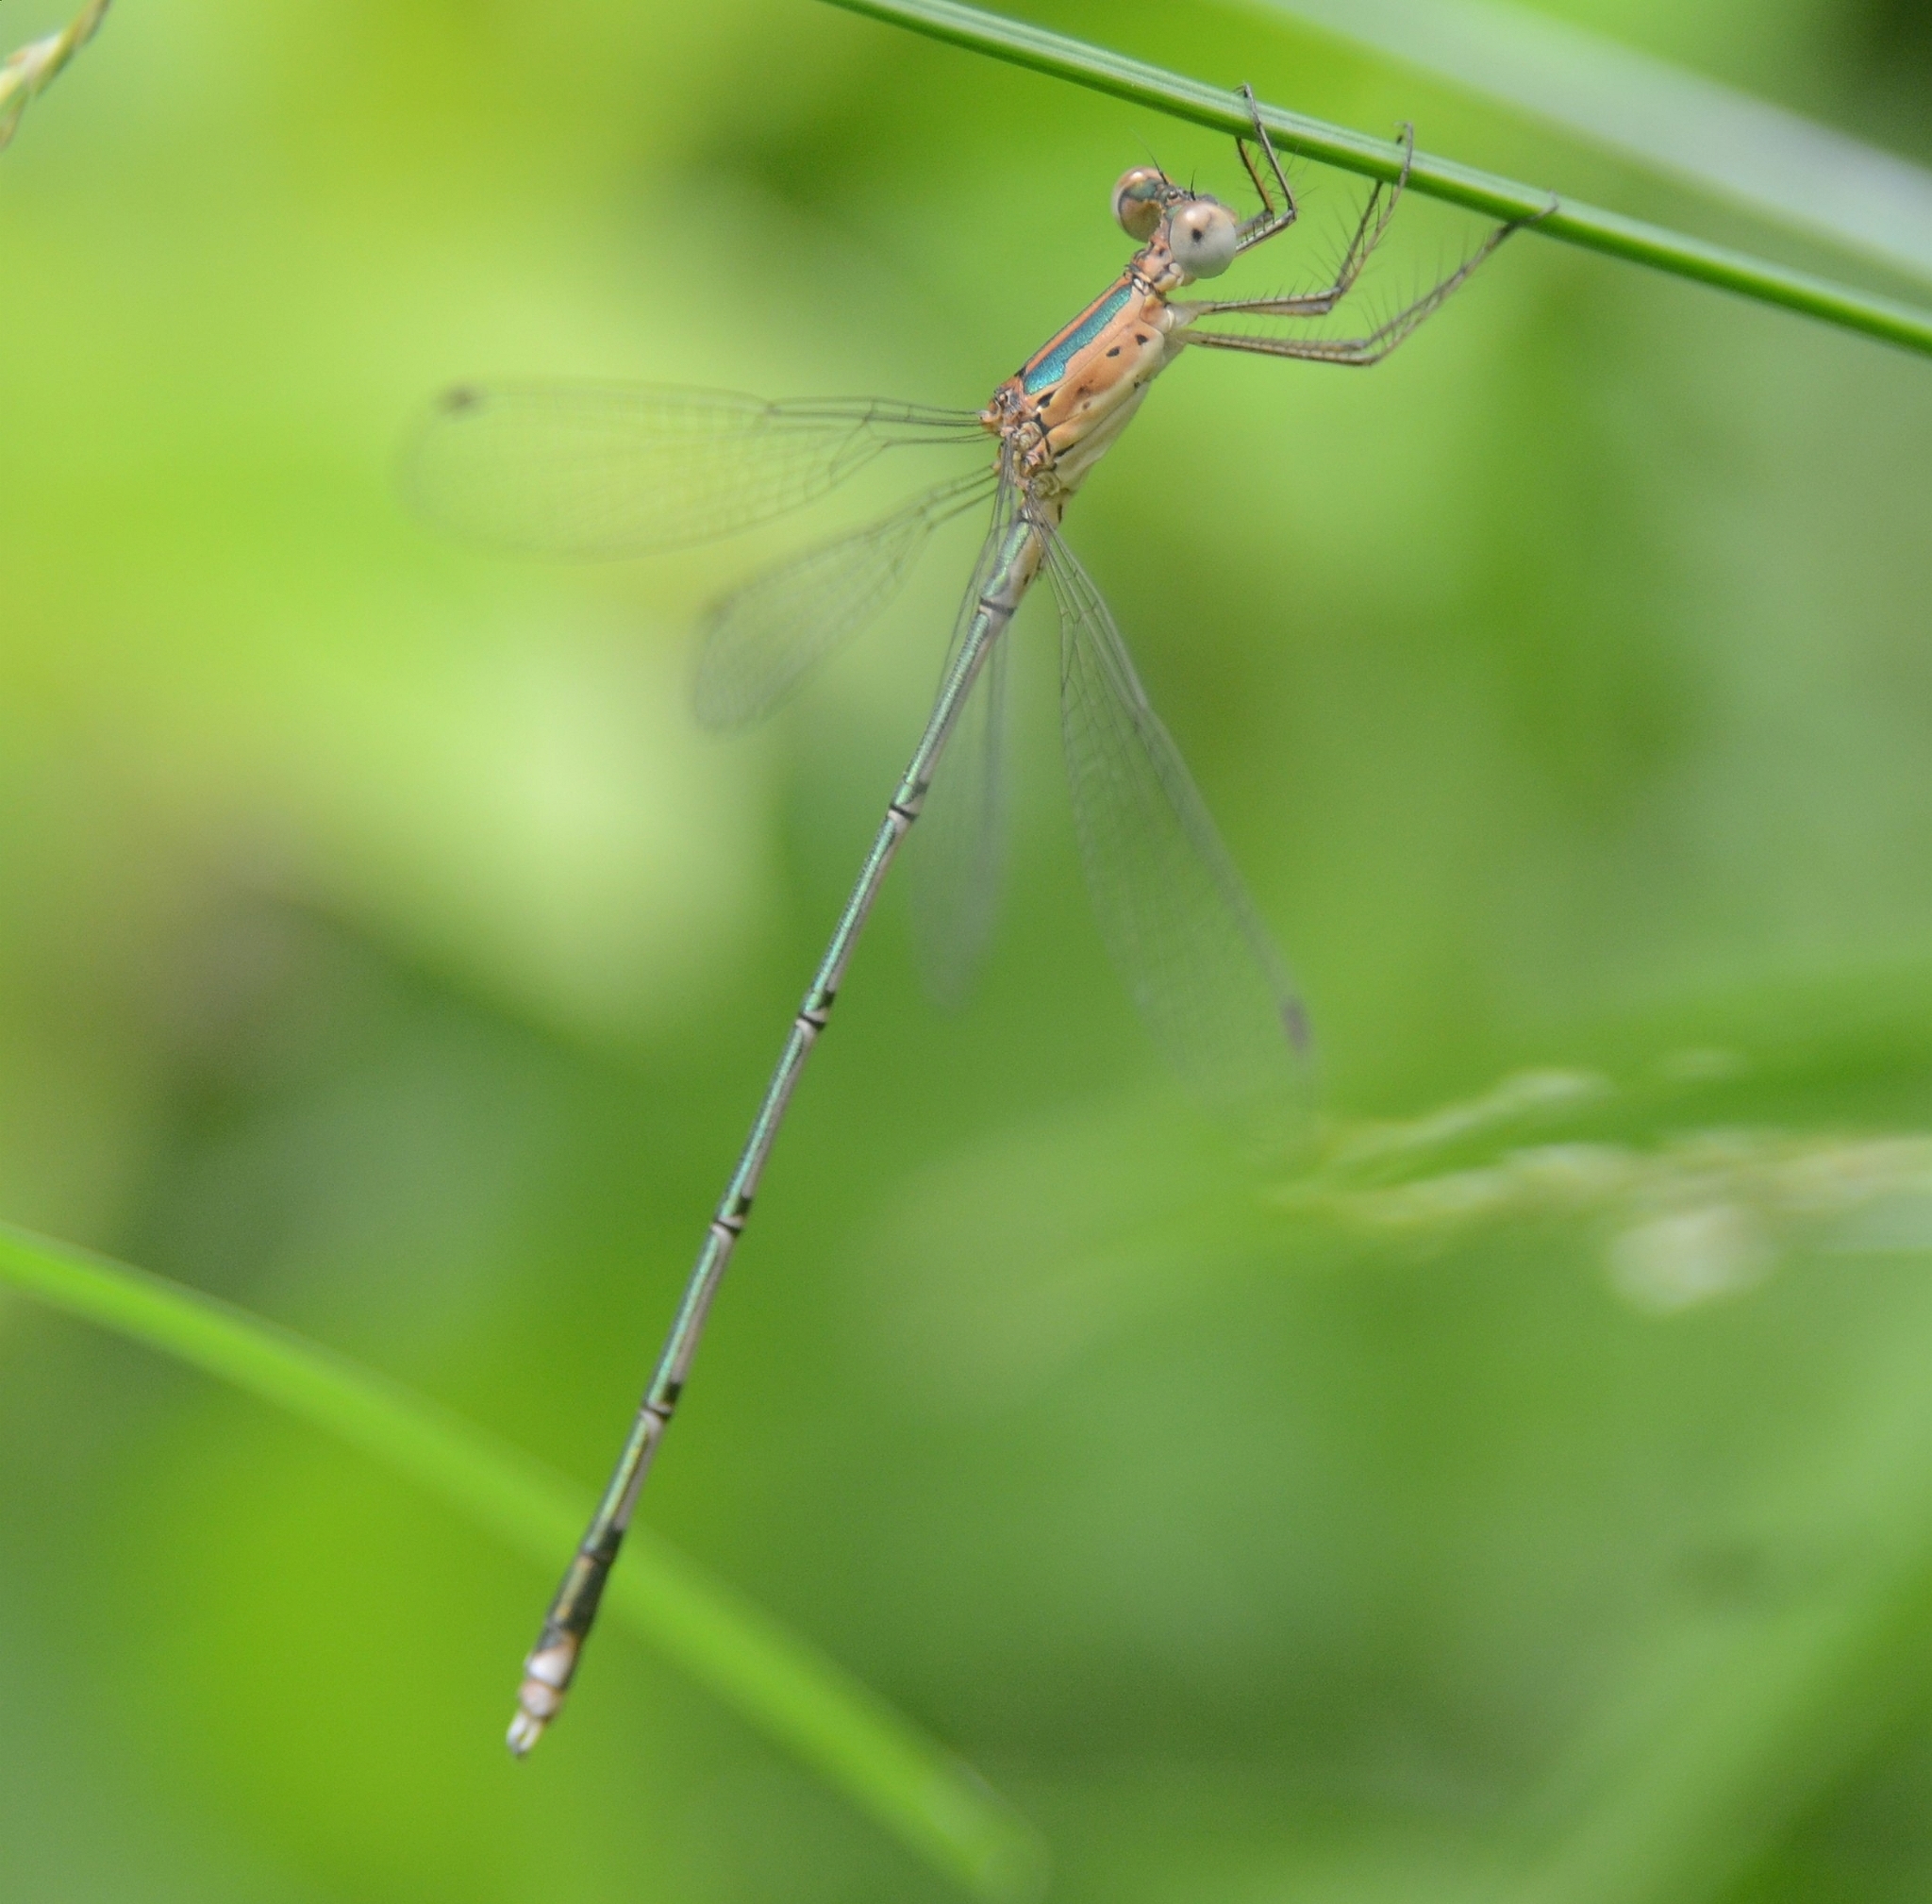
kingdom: Animalia
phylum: Arthropoda
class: Insecta
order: Odonata
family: Lestidae
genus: Lestes
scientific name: Lestes elatus
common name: Emerald spreadwing
